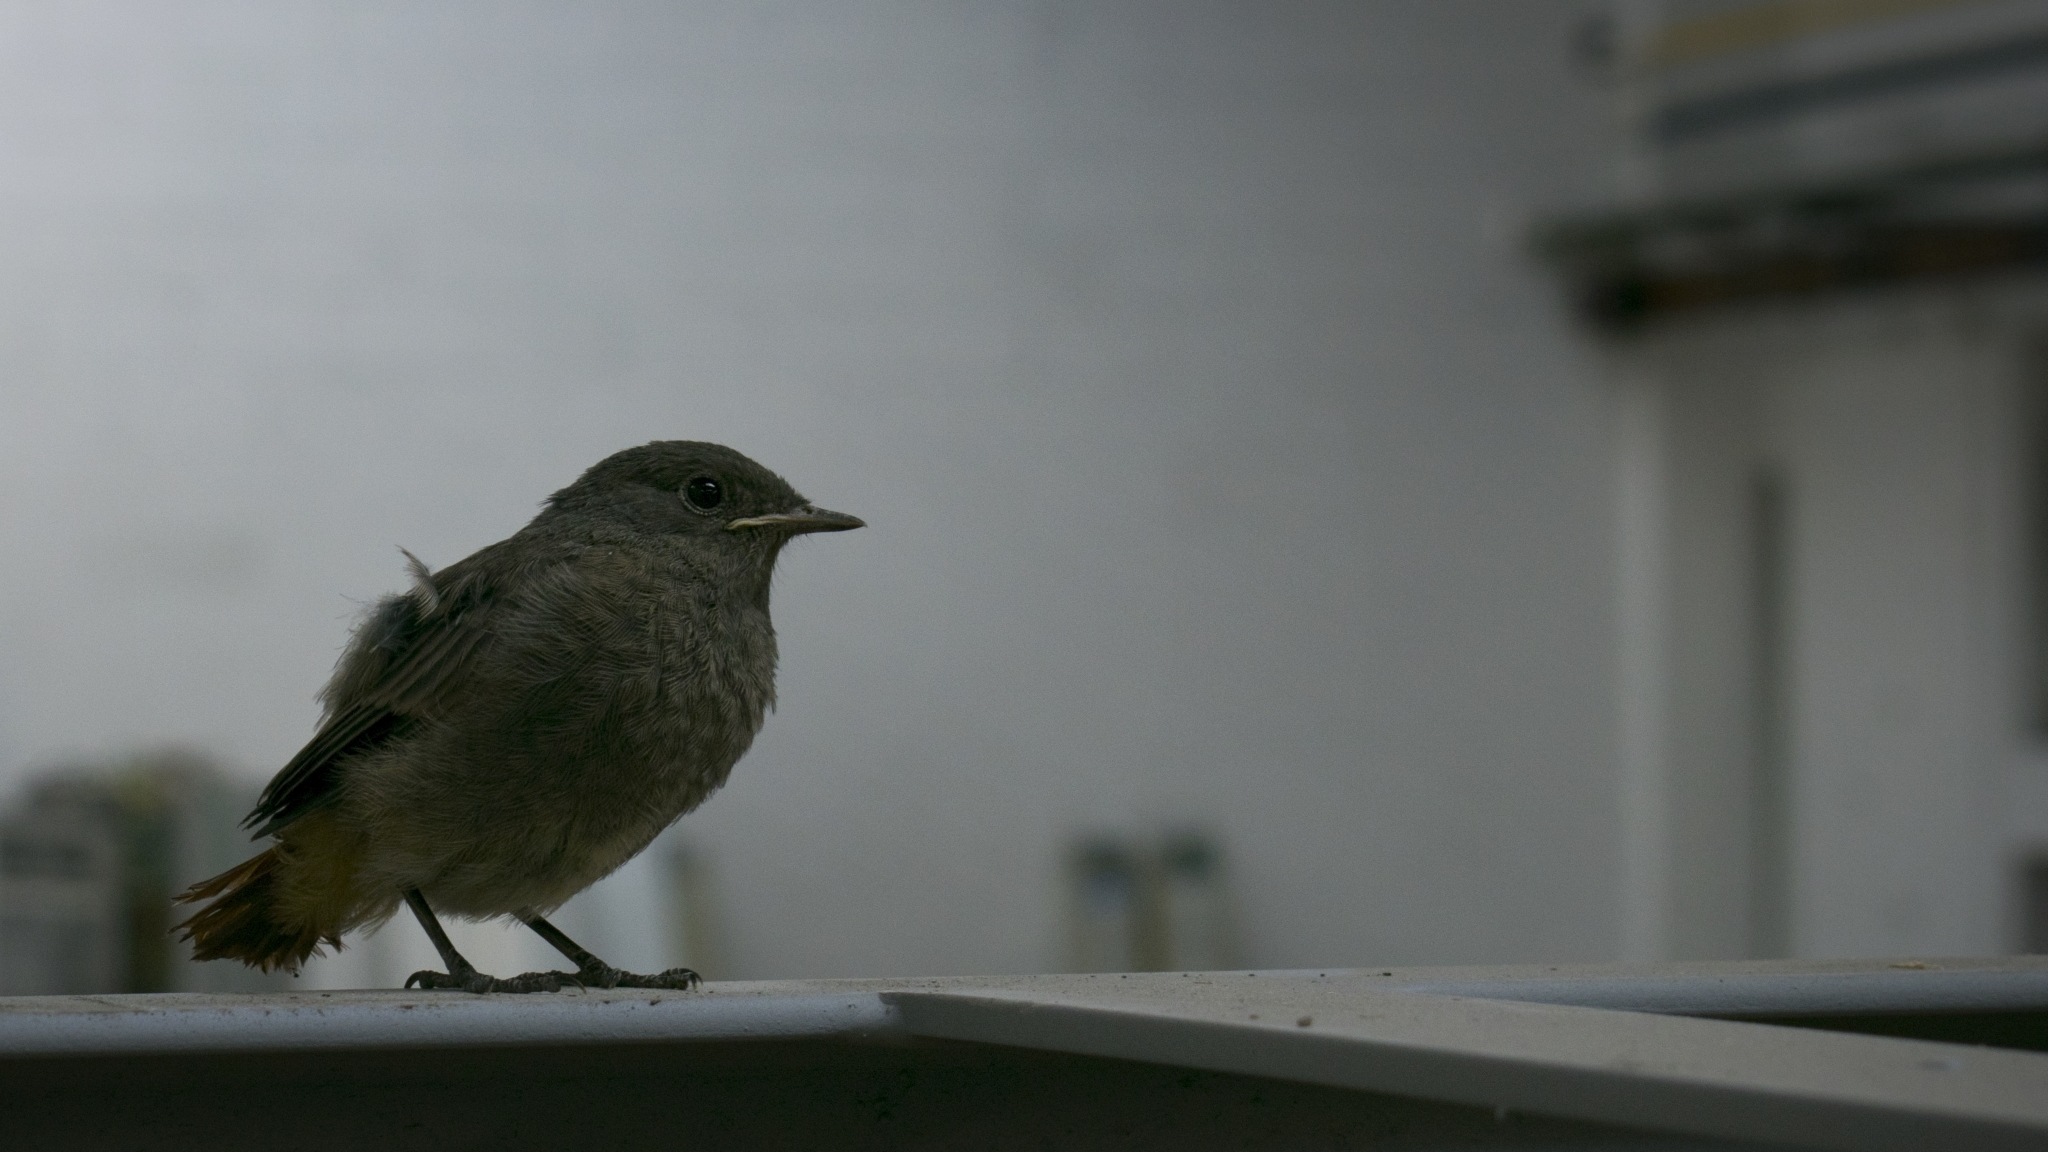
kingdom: Animalia
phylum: Chordata
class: Aves
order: Passeriformes
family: Muscicapidae
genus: Phoenicurus
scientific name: Phoenicurus ochruros
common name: Black redstart
